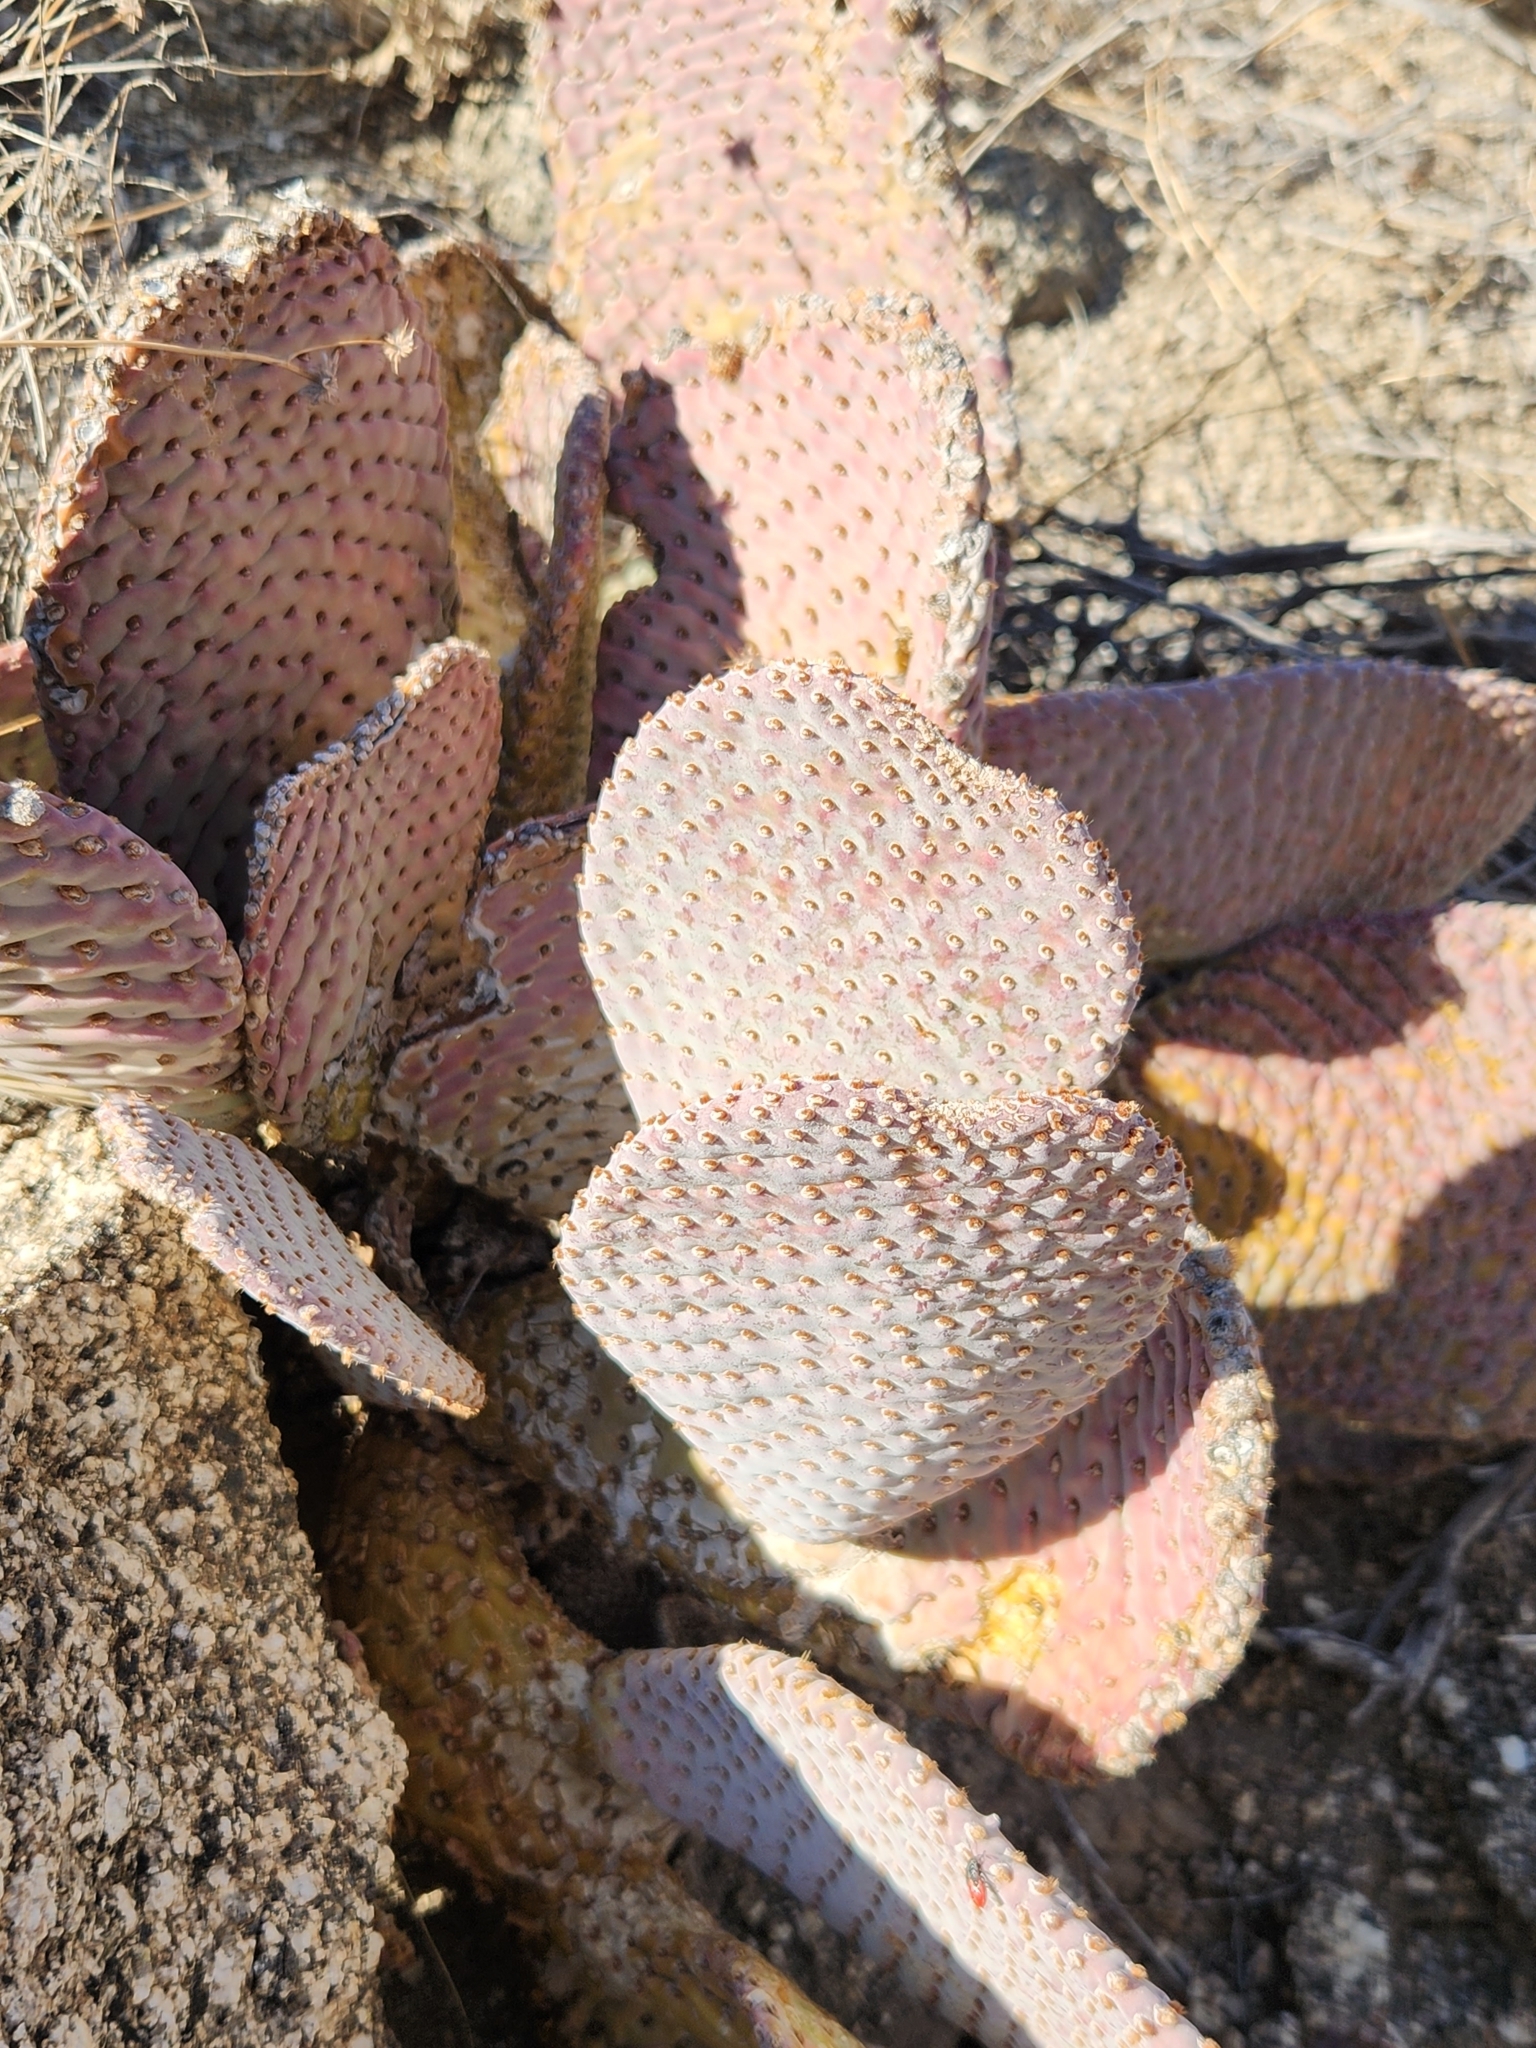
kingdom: Plantae
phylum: Tracheophyta
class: Magnoliopsida
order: Caryophyllales
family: Cactaceae
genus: Opuntia
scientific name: Opuntia basilaris
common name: Beavertail prickly-pear
